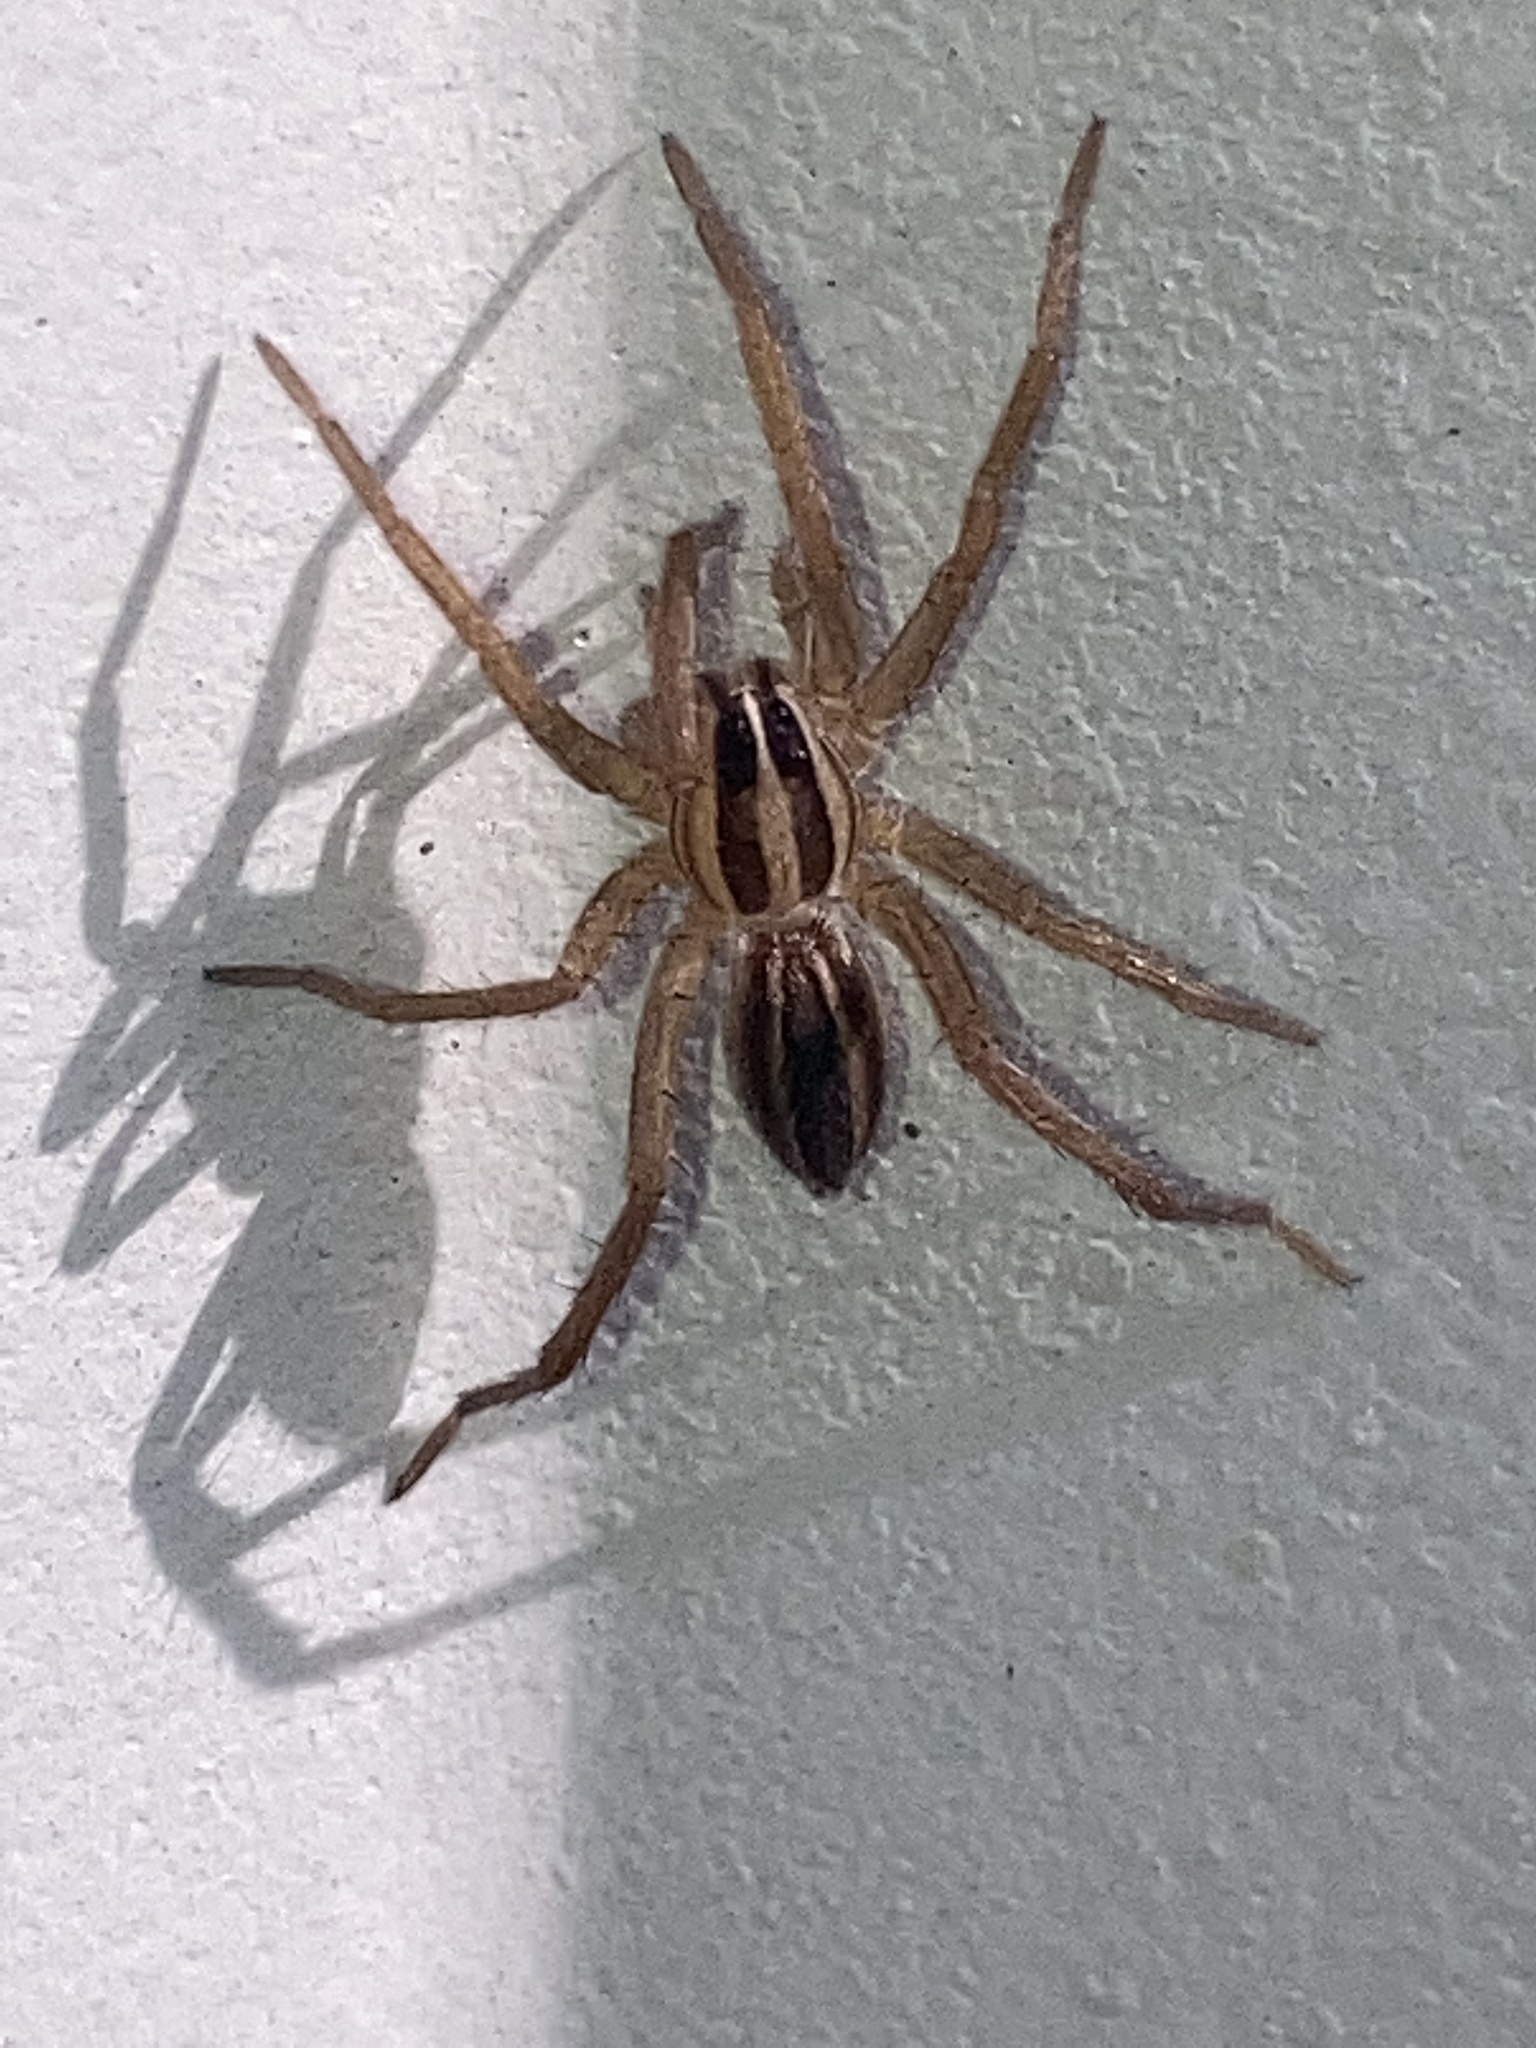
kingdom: Animalia
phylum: Arthropoda
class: Arachnida
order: Araneae
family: Lycosidae
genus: Rabidosa
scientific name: Rabidosa rabida
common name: Rabid wolf spider
